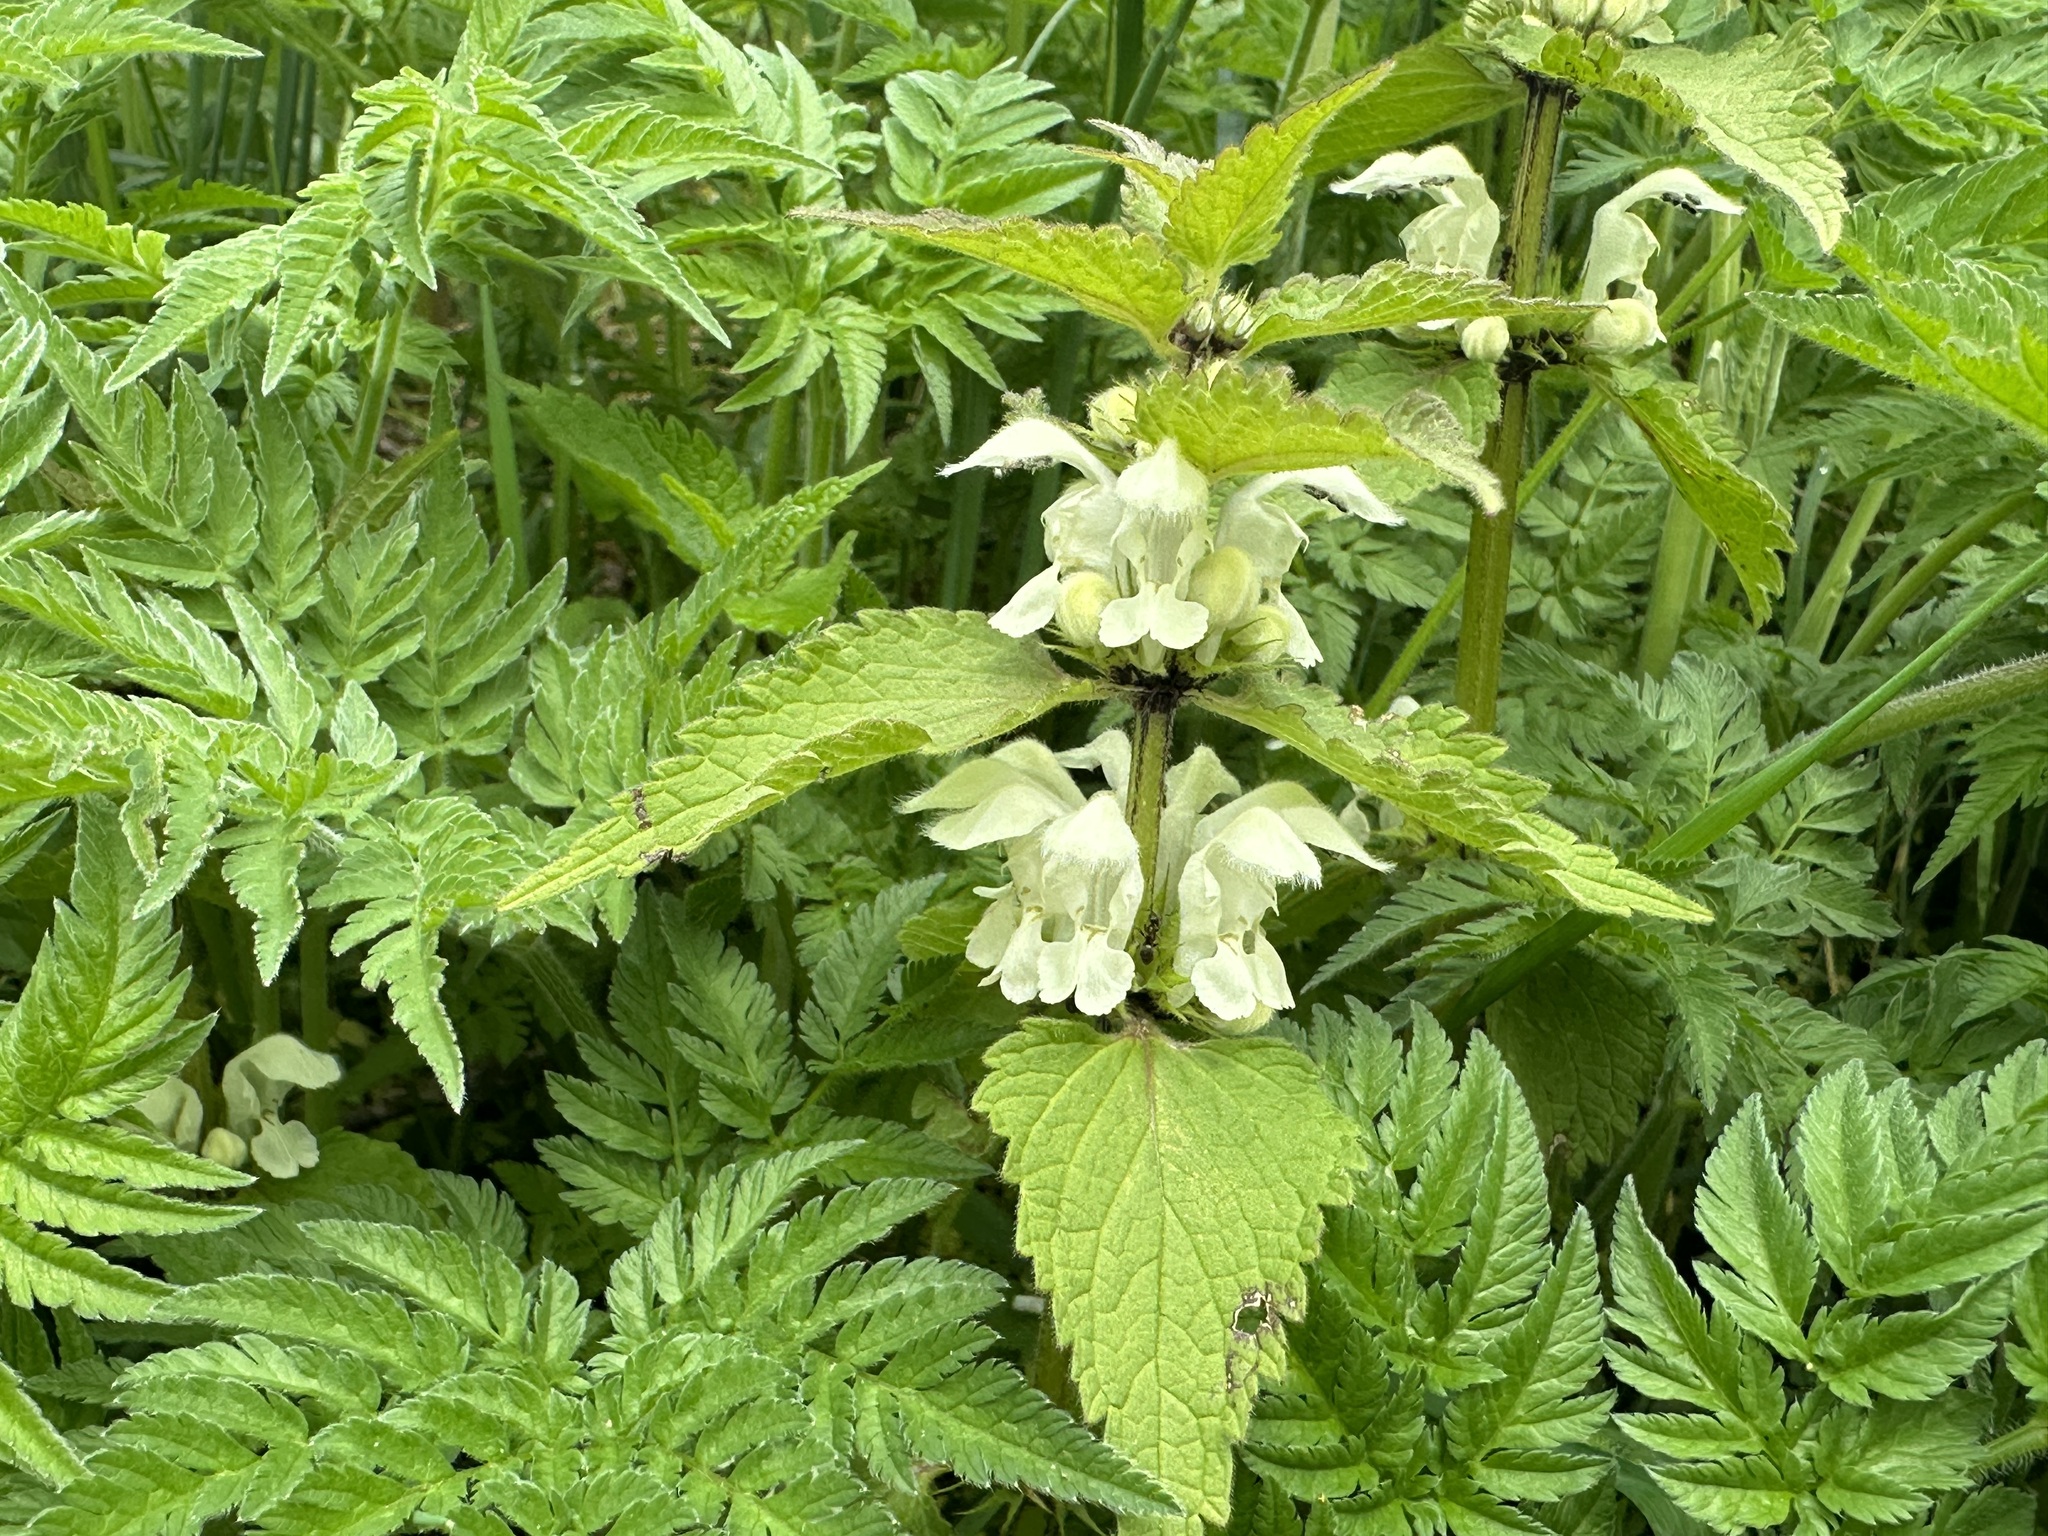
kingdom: Plantae
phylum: Tracheophyta
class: Magnoliopsida
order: Lamiales
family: Lamiaceae
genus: Lamium
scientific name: Lamium album
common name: White dead-nettle
